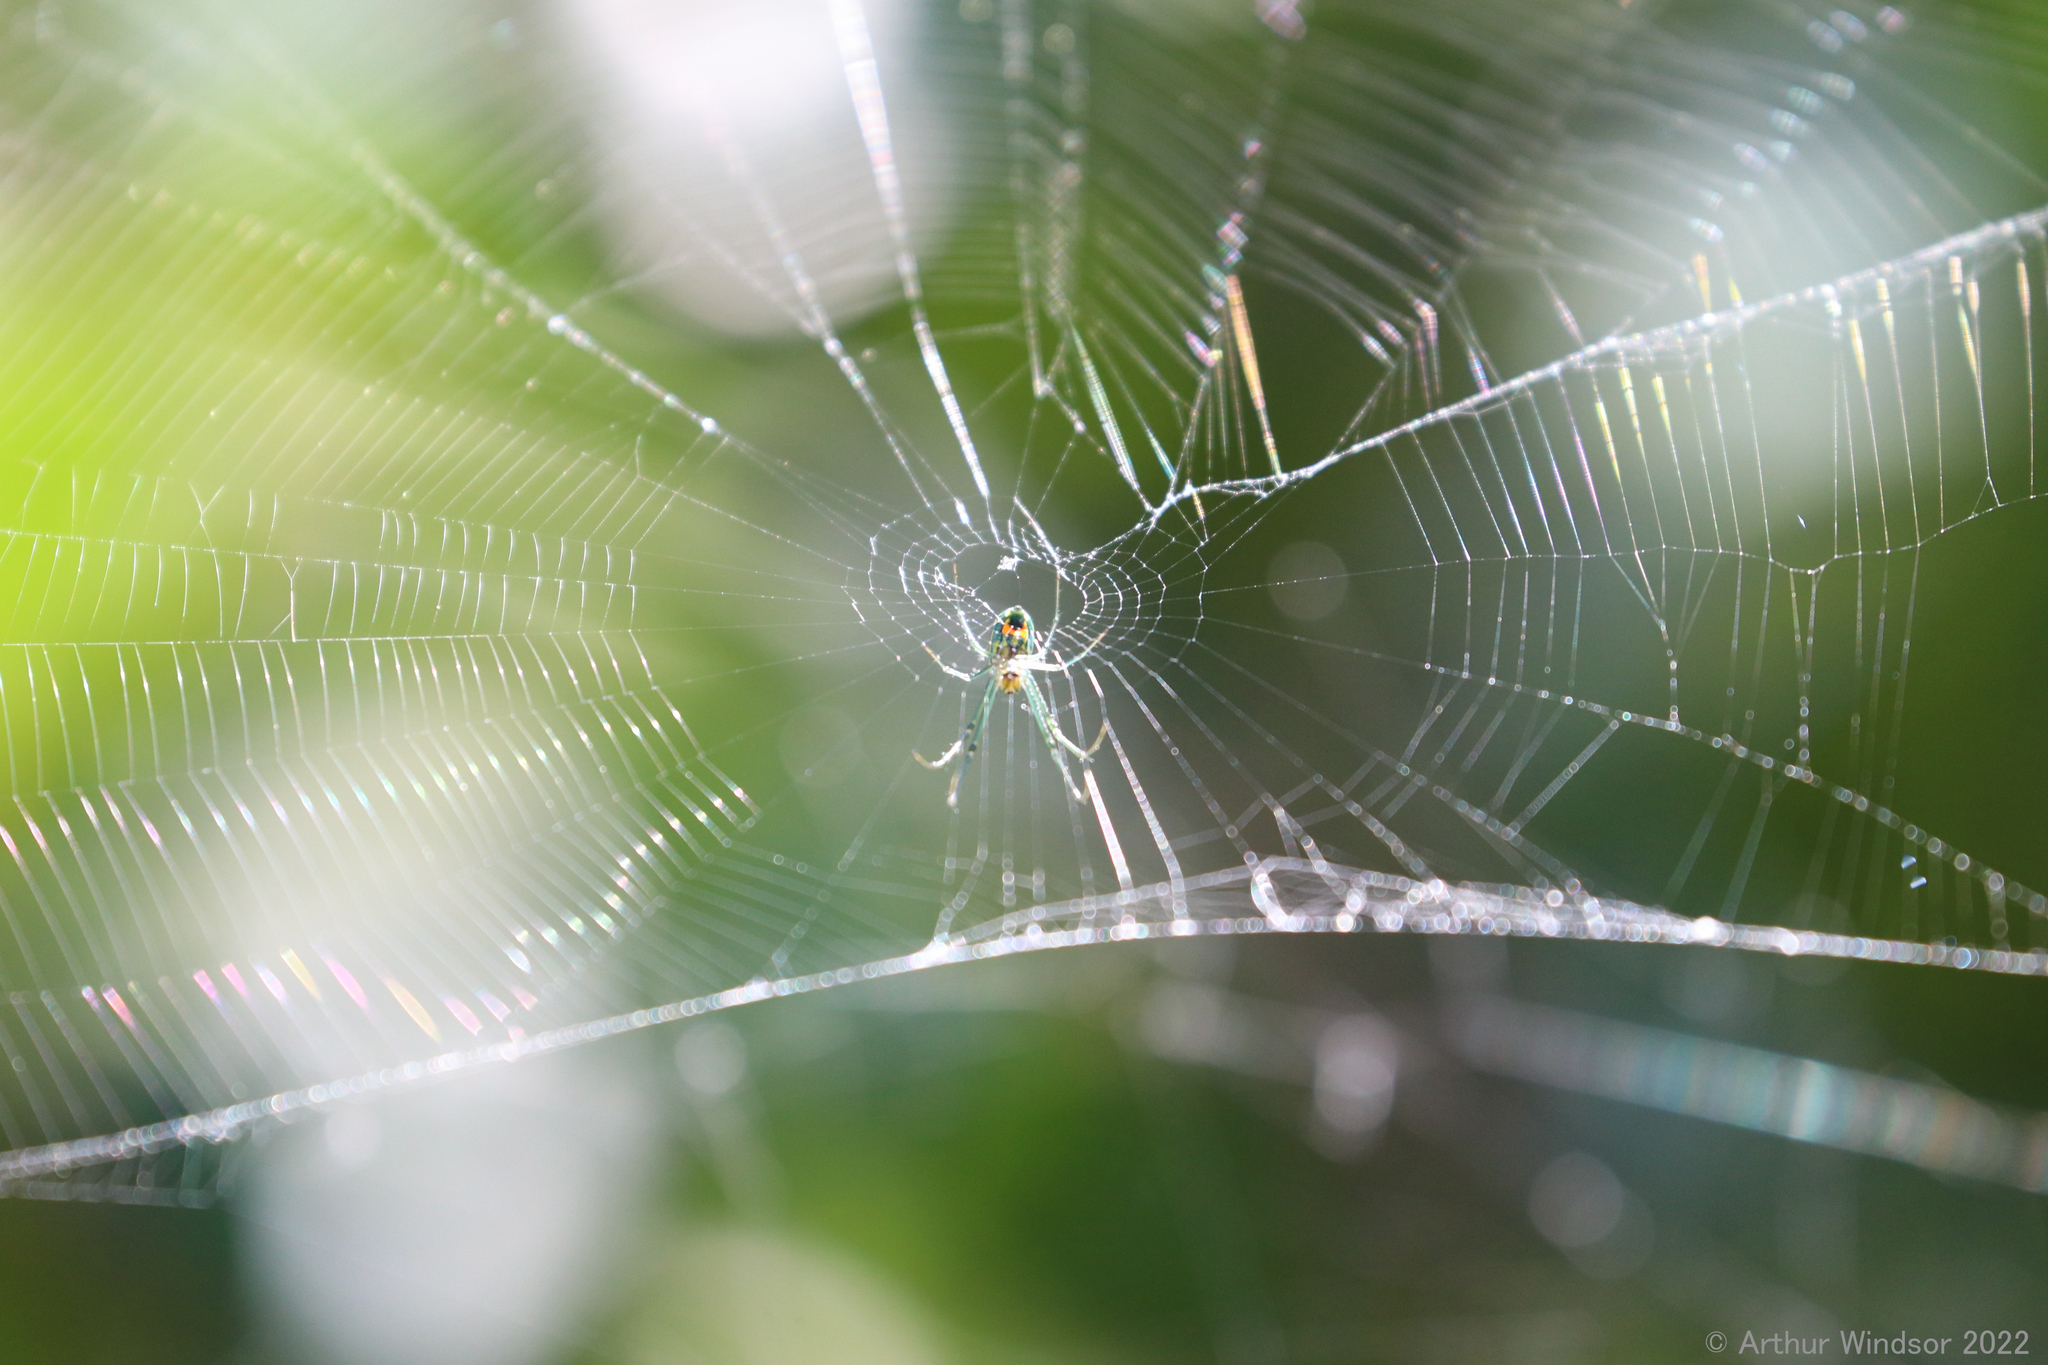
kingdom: Animalia
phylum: Arthropoda
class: Arachnida
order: Araneae
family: Tetragnathidae
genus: Leucauge
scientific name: Leucauge argyrobapta
